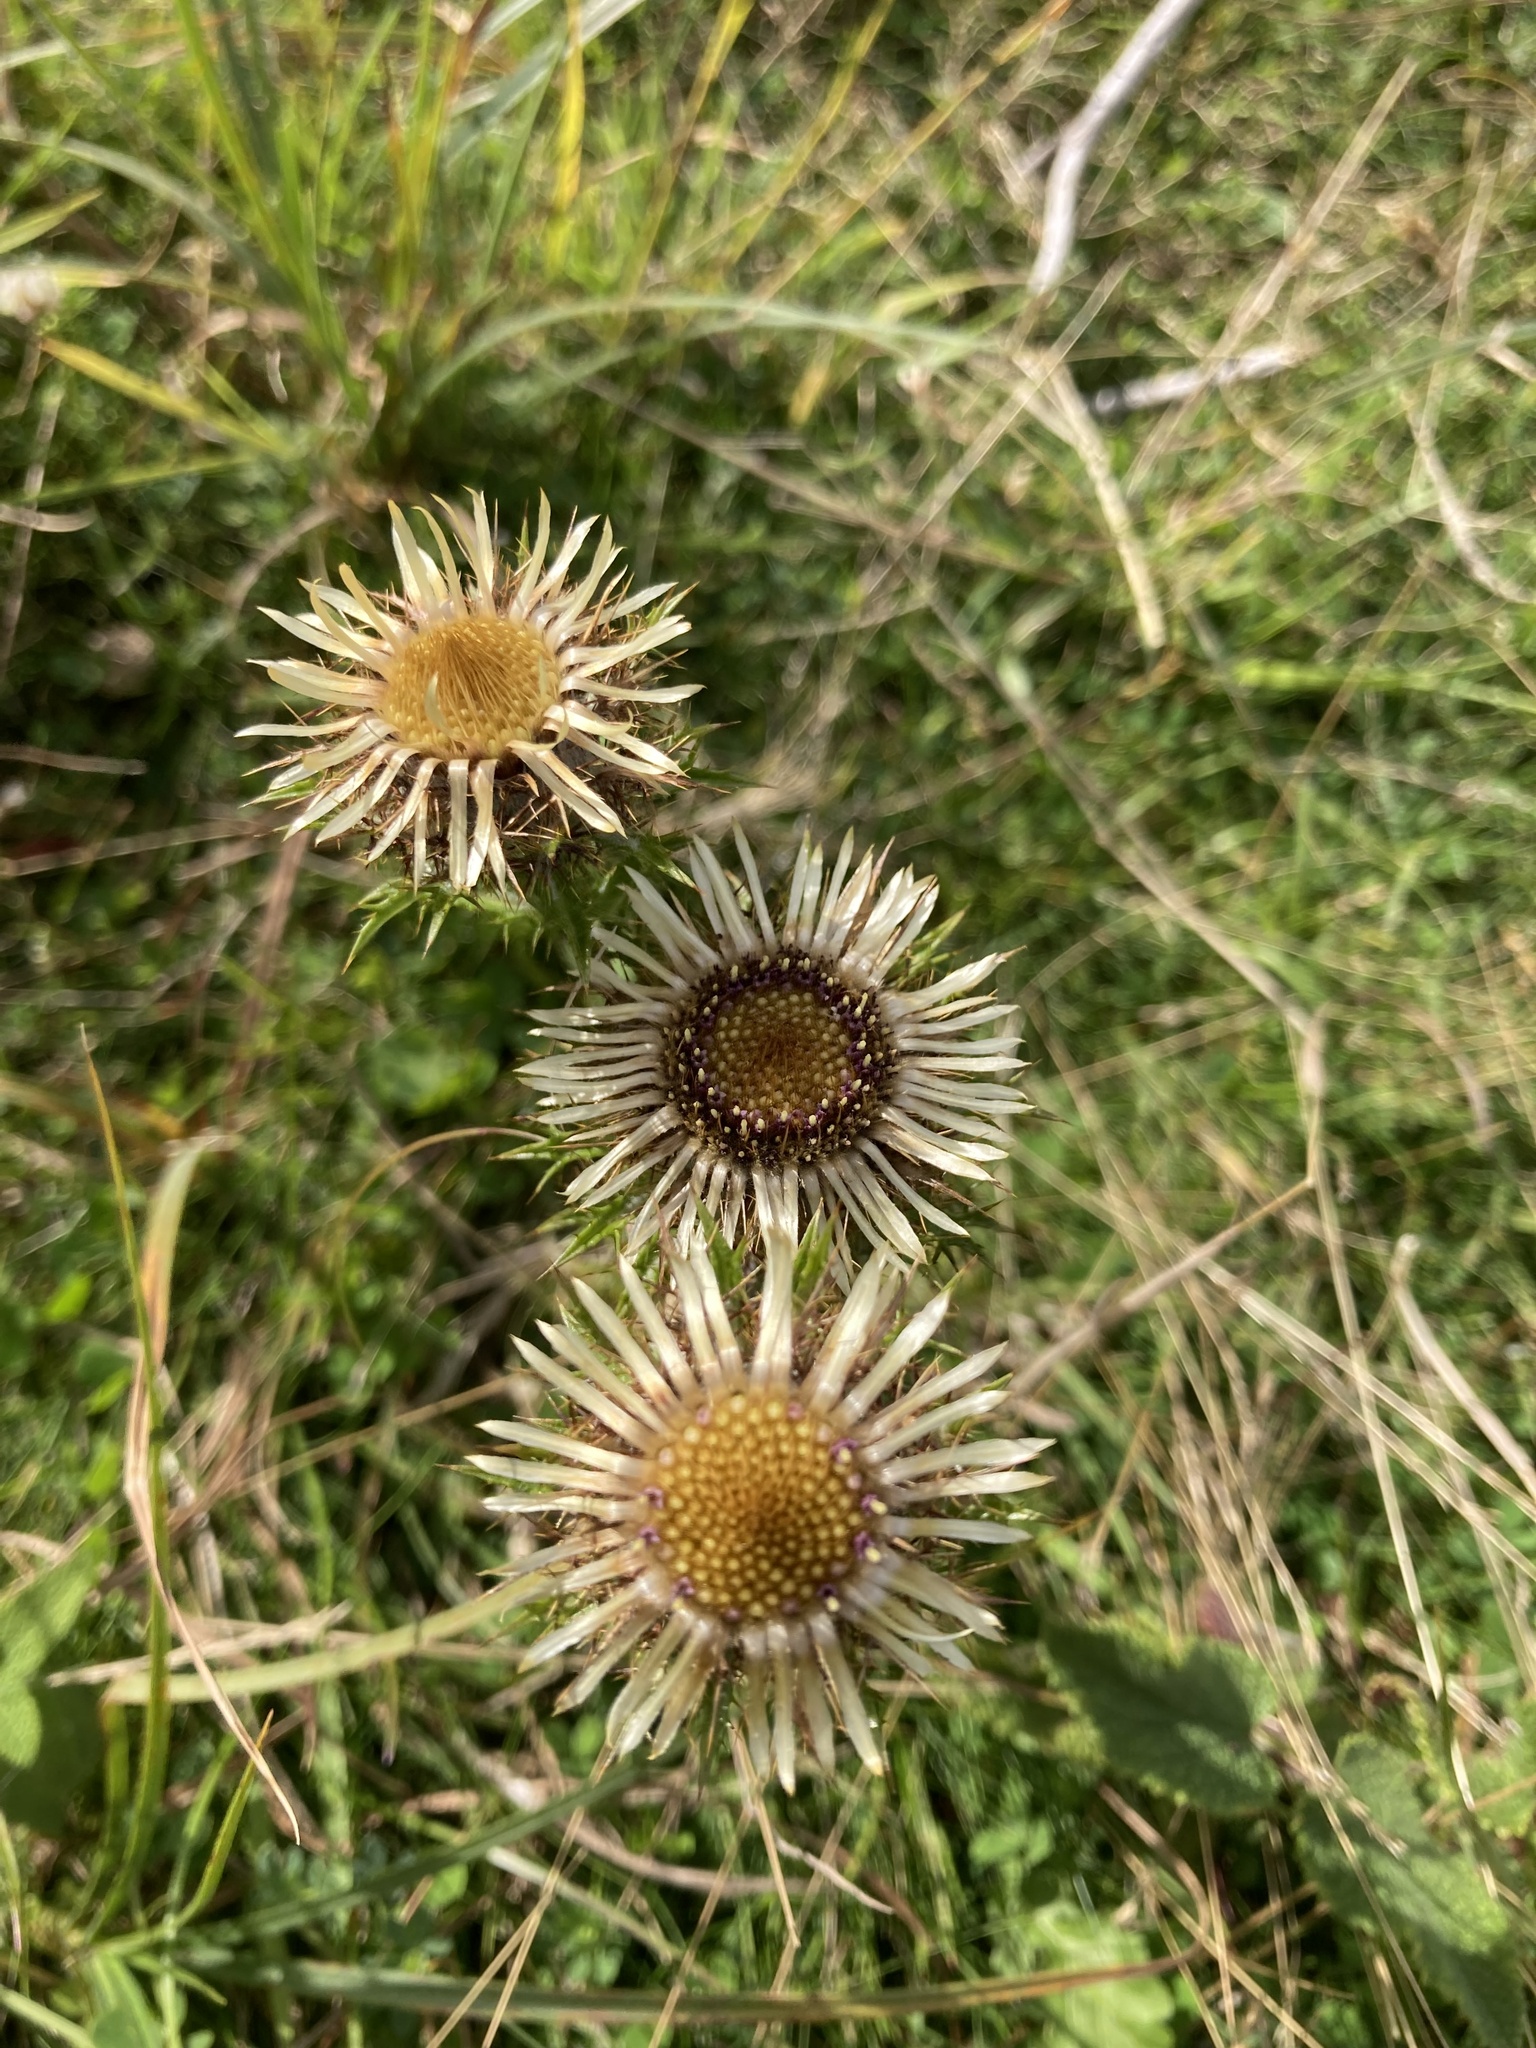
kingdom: Plantae
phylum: Tracheophyta
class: Magnoliopsida
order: Asterales
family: Asteraceae
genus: Carlina
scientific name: Carlina vulgaris
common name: Carline thistle
